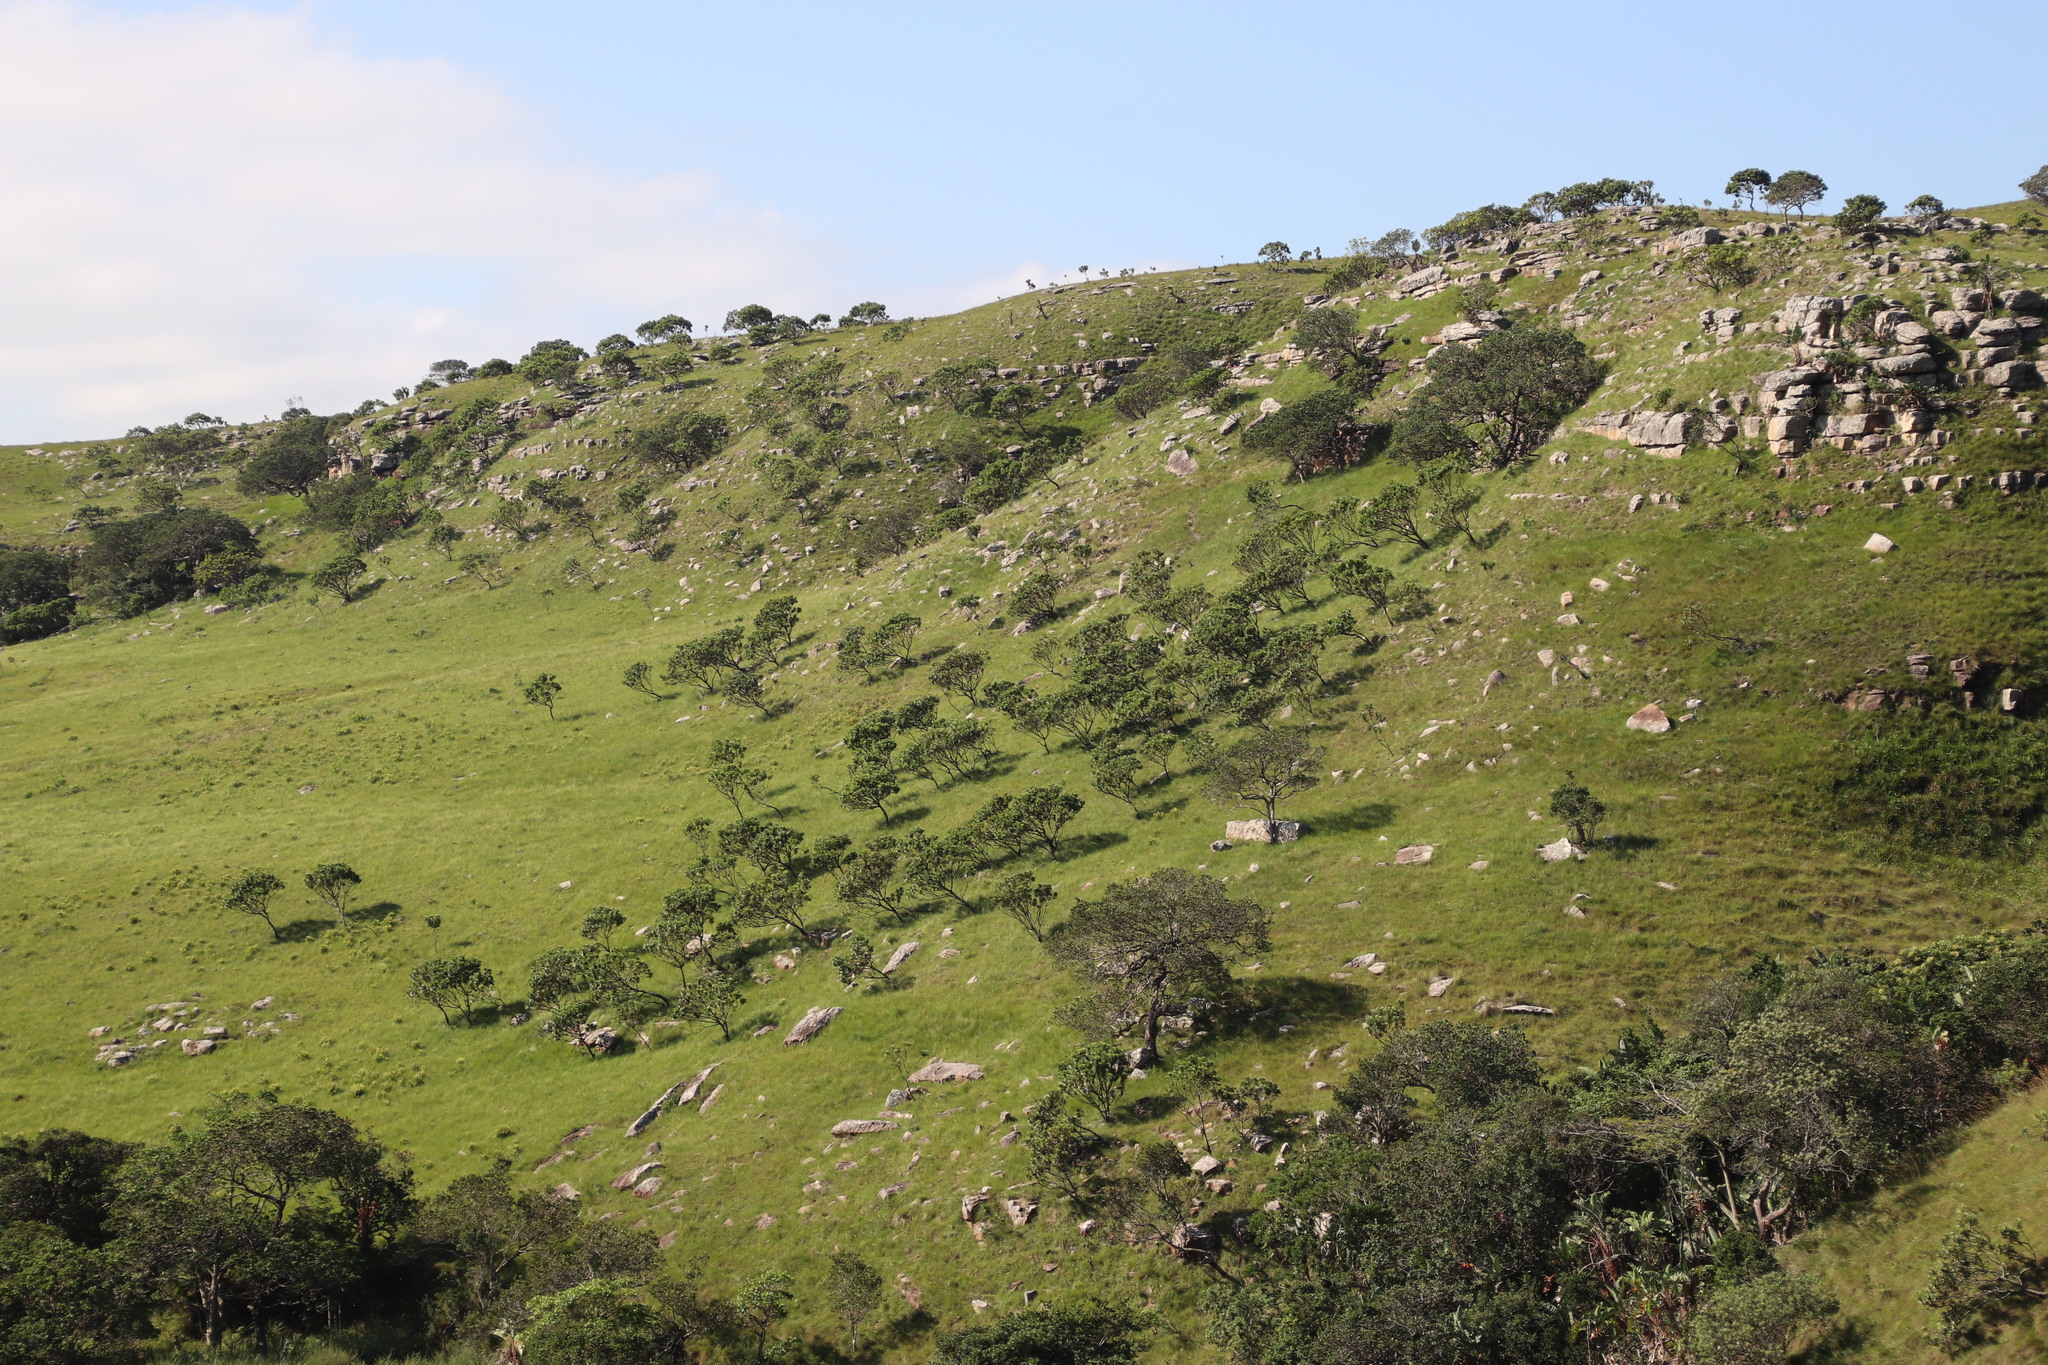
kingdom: Plantae
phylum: Tracheophyta
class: Magnoliopsida
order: Proteales
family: Proteaceae
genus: Protea
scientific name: Protea roupelliae
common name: Silver sugarbush
